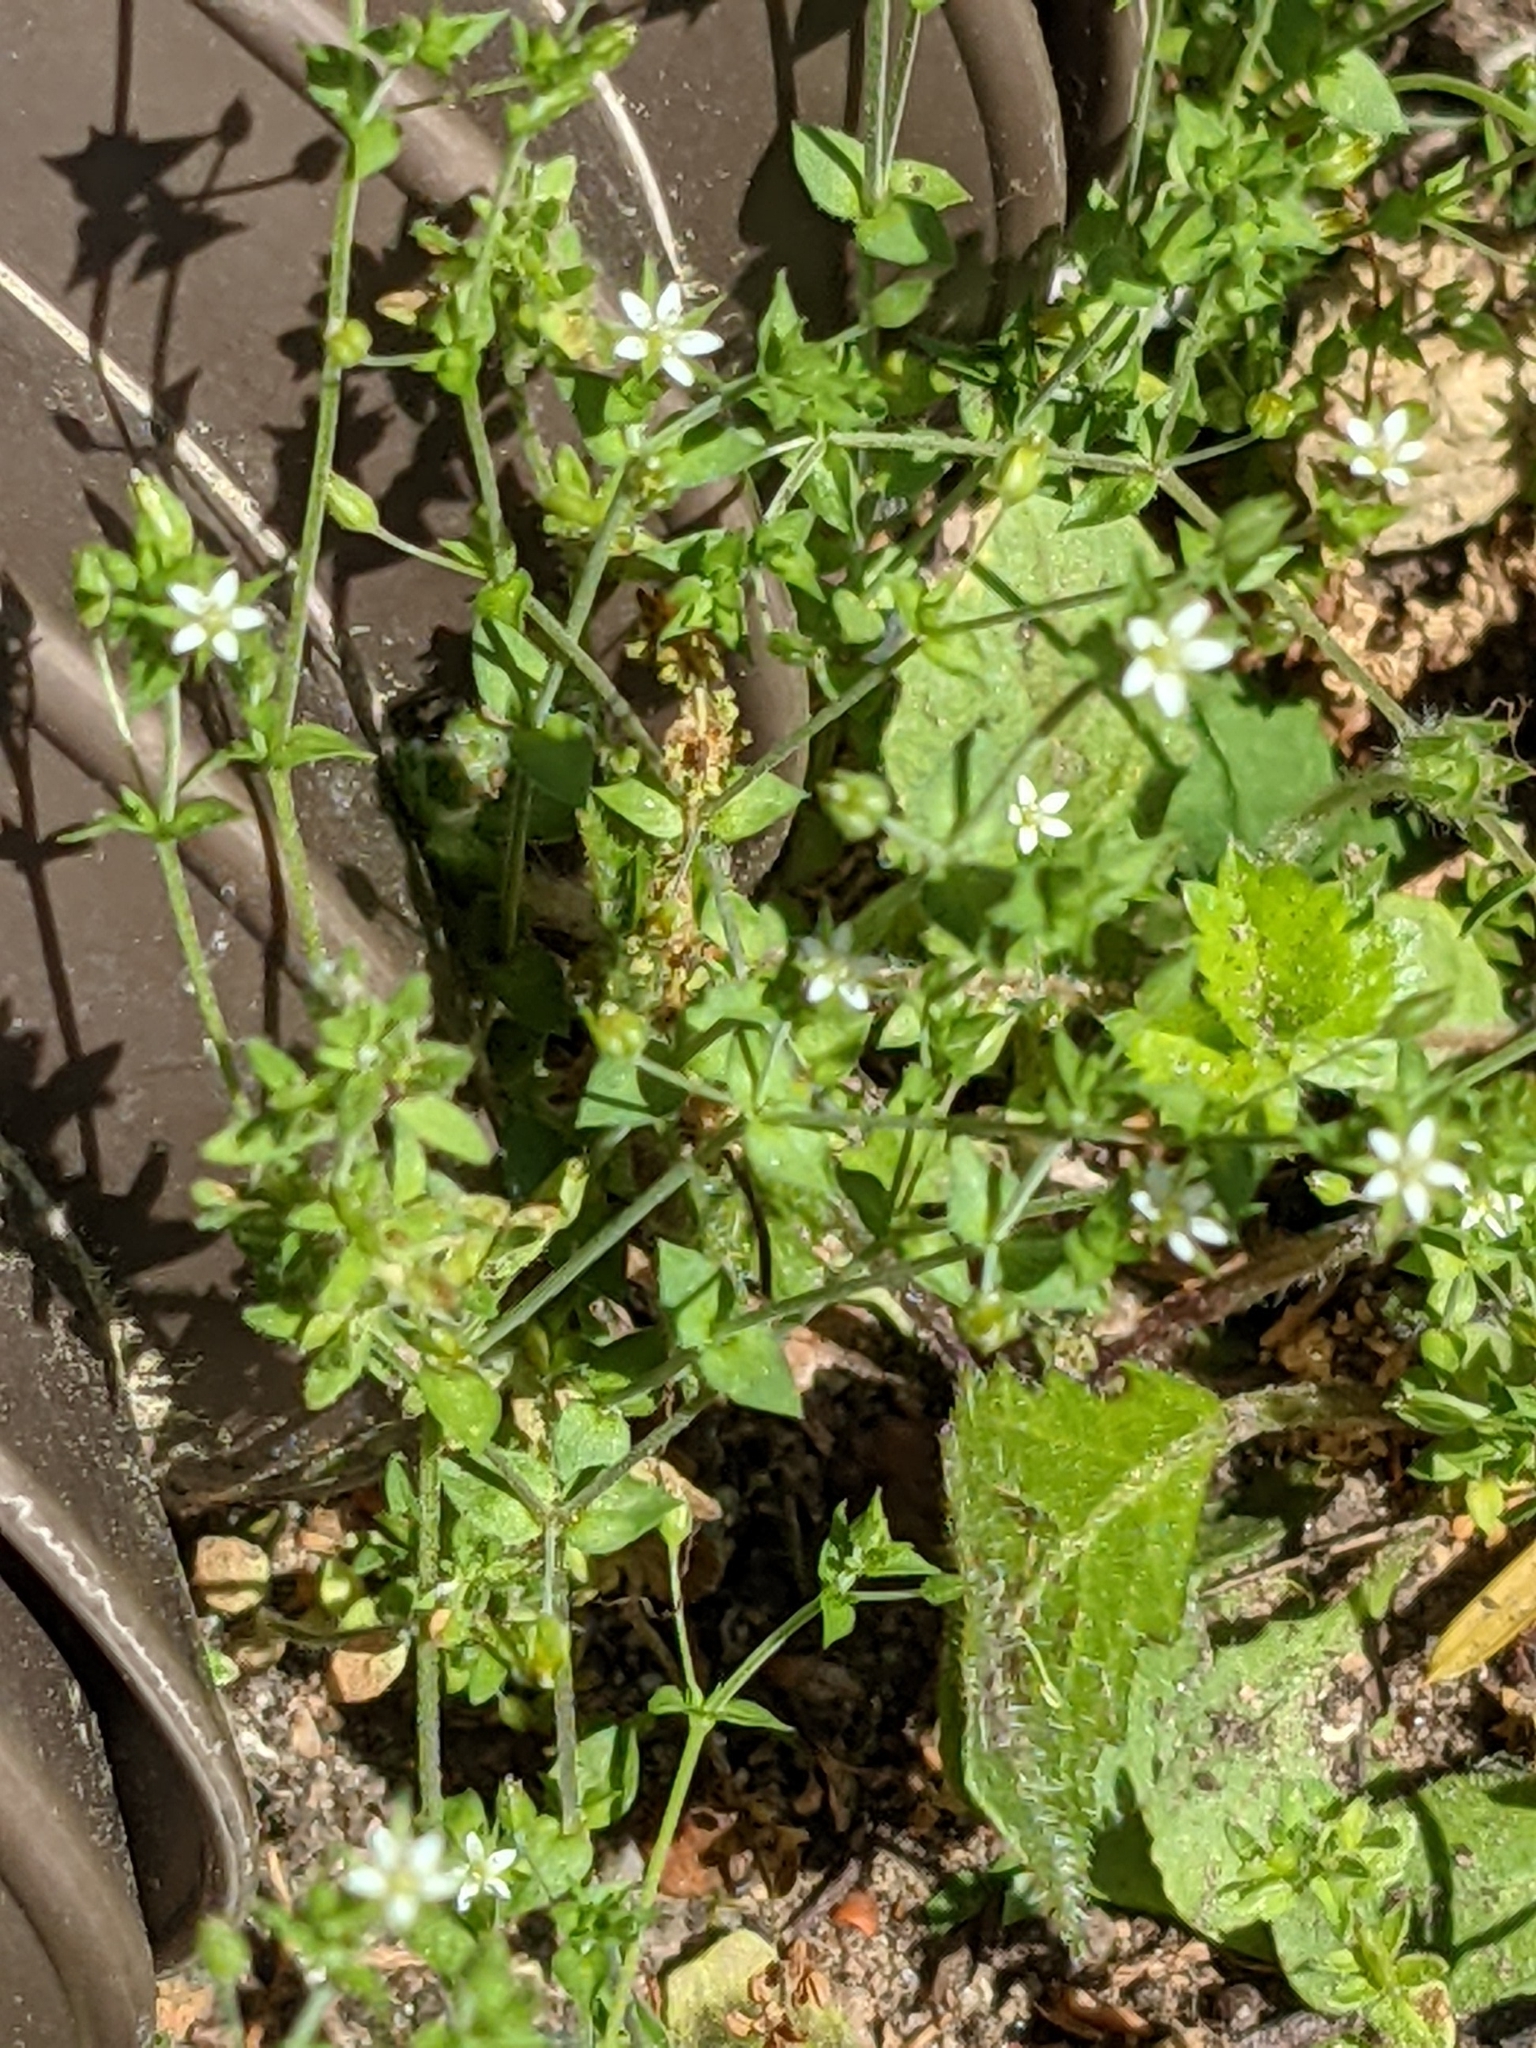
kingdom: Plantae
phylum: Tracheophyta
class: Magnoliopsida
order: Caryophyllales
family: Caryophyllaceae
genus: Arenaria
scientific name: Arenaria serpyllifolia
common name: Thyme-leaved sandwort
